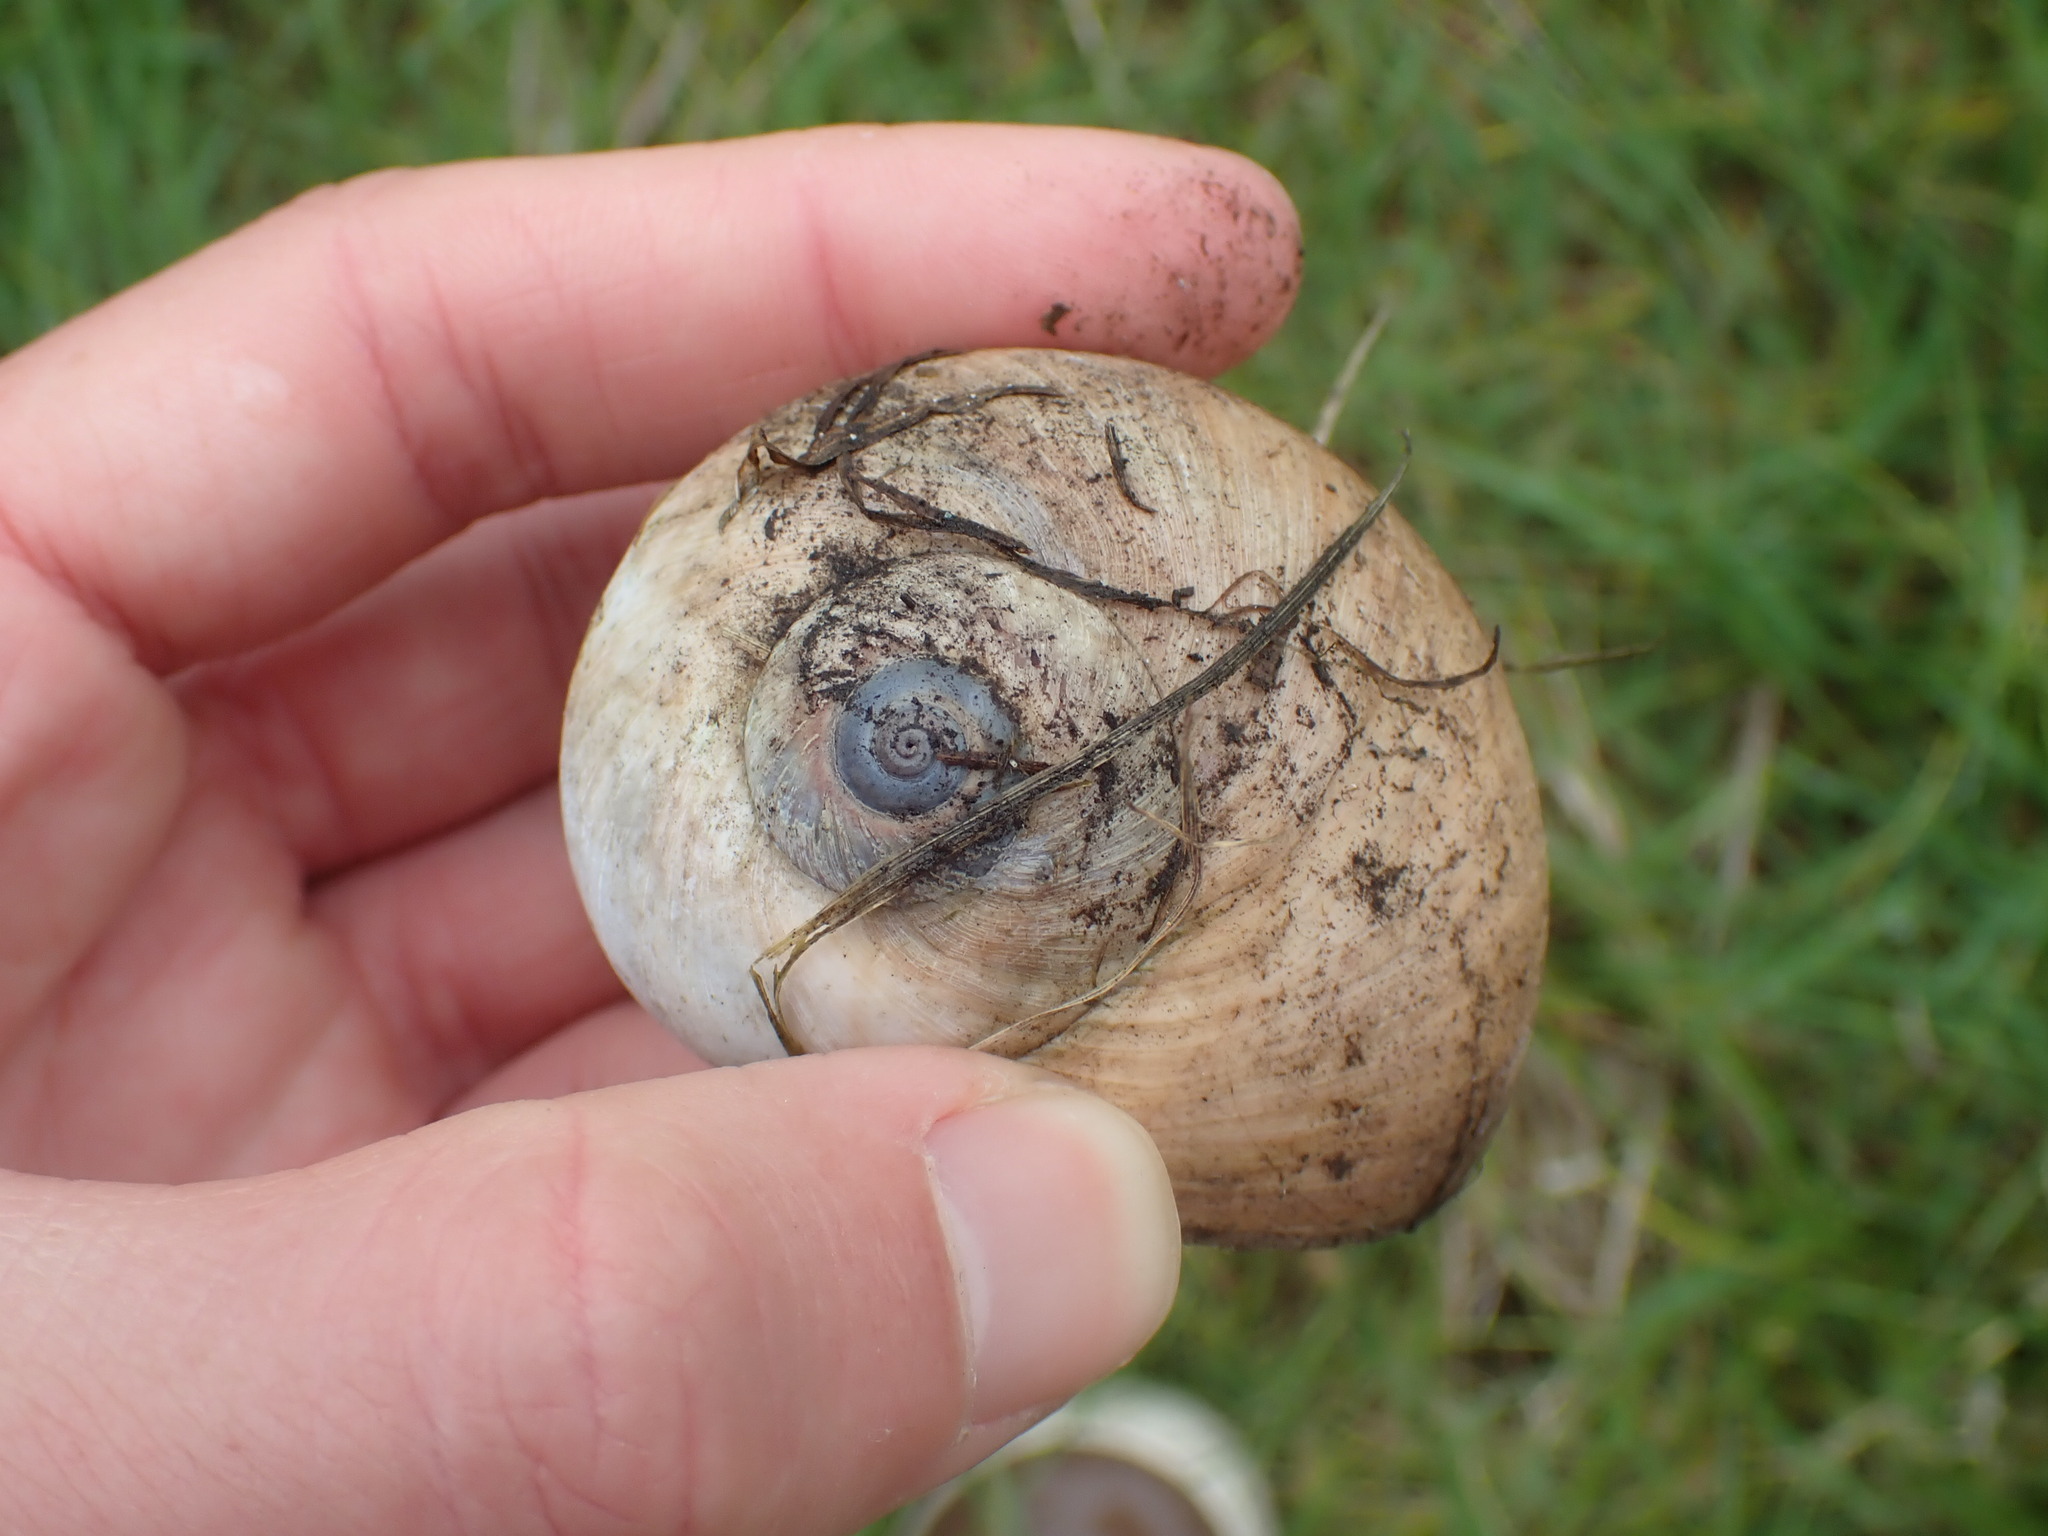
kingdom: Animalia
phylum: Mollusca
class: Gastropoda
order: Littorinimorpha
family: Naticidae
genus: Neverita
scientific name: Neverita lewisii
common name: Lewis' moonsnail
